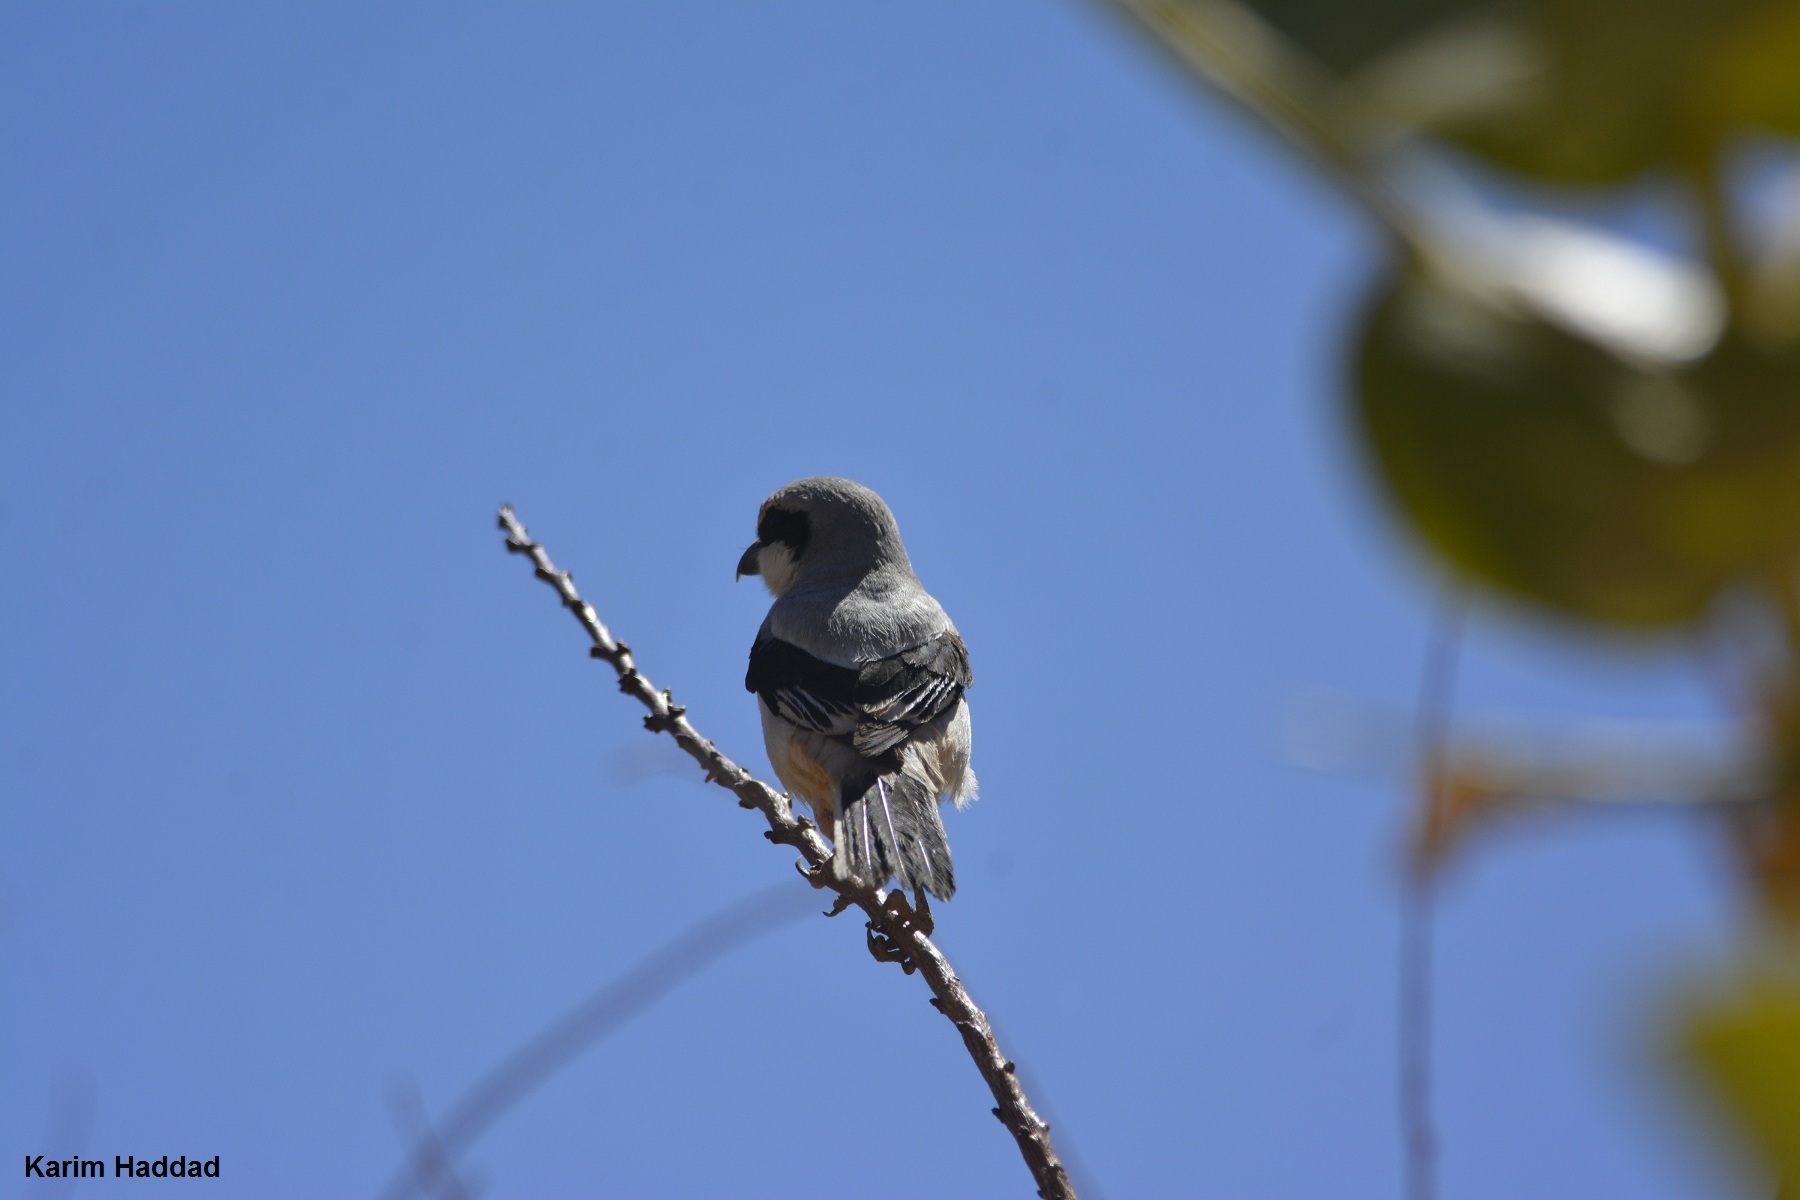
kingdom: Animalia
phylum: Chordata
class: Aves
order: Passeriformes
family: Laniidae
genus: Lanius
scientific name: Lanius excubitor
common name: Great grey shrike
